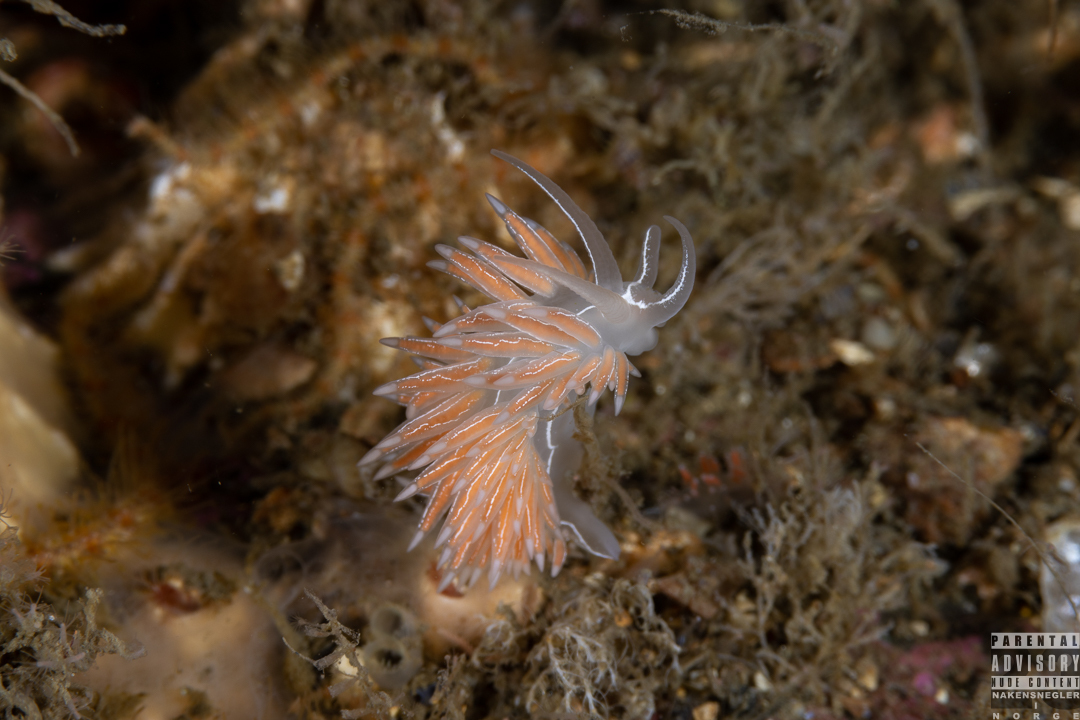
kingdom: Animalia
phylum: Mollusca
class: Gastropoda
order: Nudibranchia
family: Coryphellidae
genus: Coryphella
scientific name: Coryphella chriskaugei
